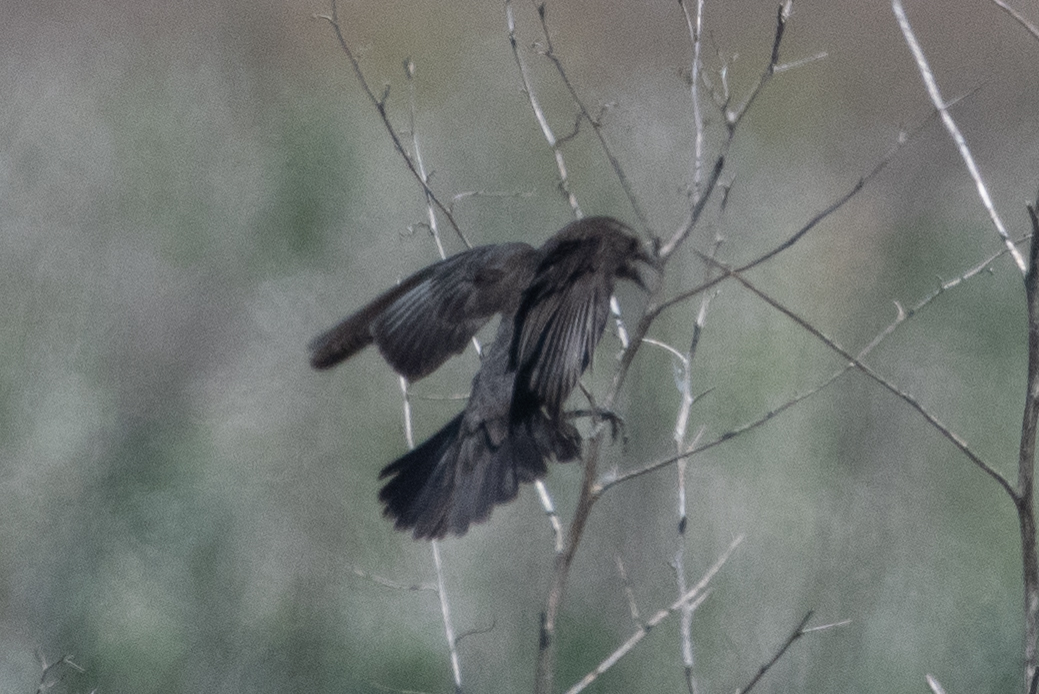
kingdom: Animalia
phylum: Chordata
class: Aves
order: Passeriformes
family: Icteridae
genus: Agelaius
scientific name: Agelaius phoeniceus
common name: Red-winged blackbird
